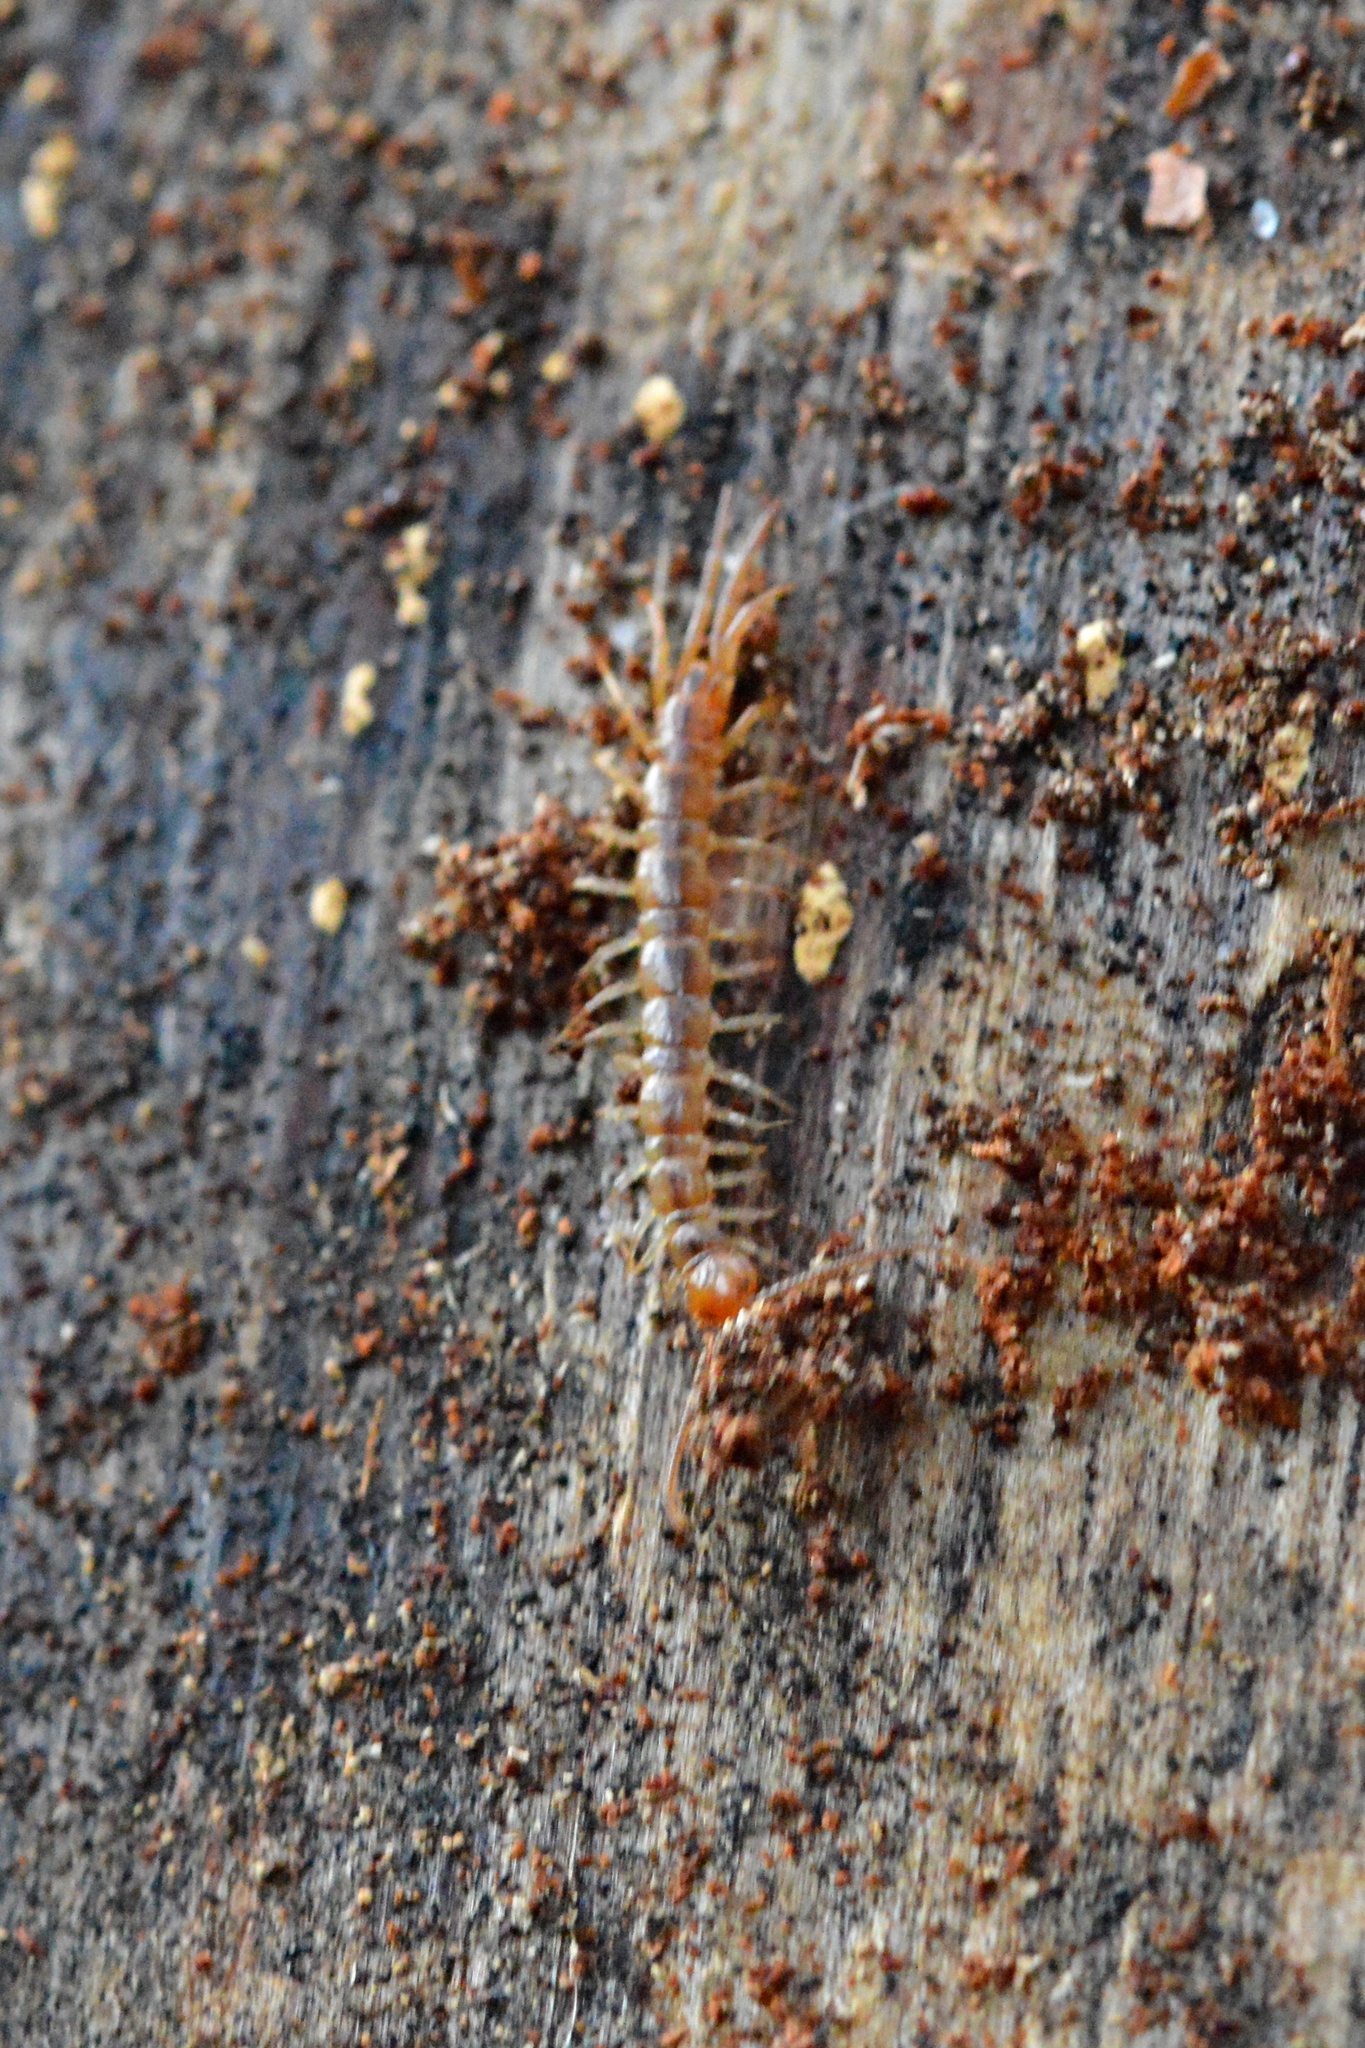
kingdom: Animalia
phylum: Arthropoda
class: Chilopoda
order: Lithobiomorpha
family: Lithobiidae
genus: Lithobius
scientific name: Lithobius forficatus
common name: Centipede
